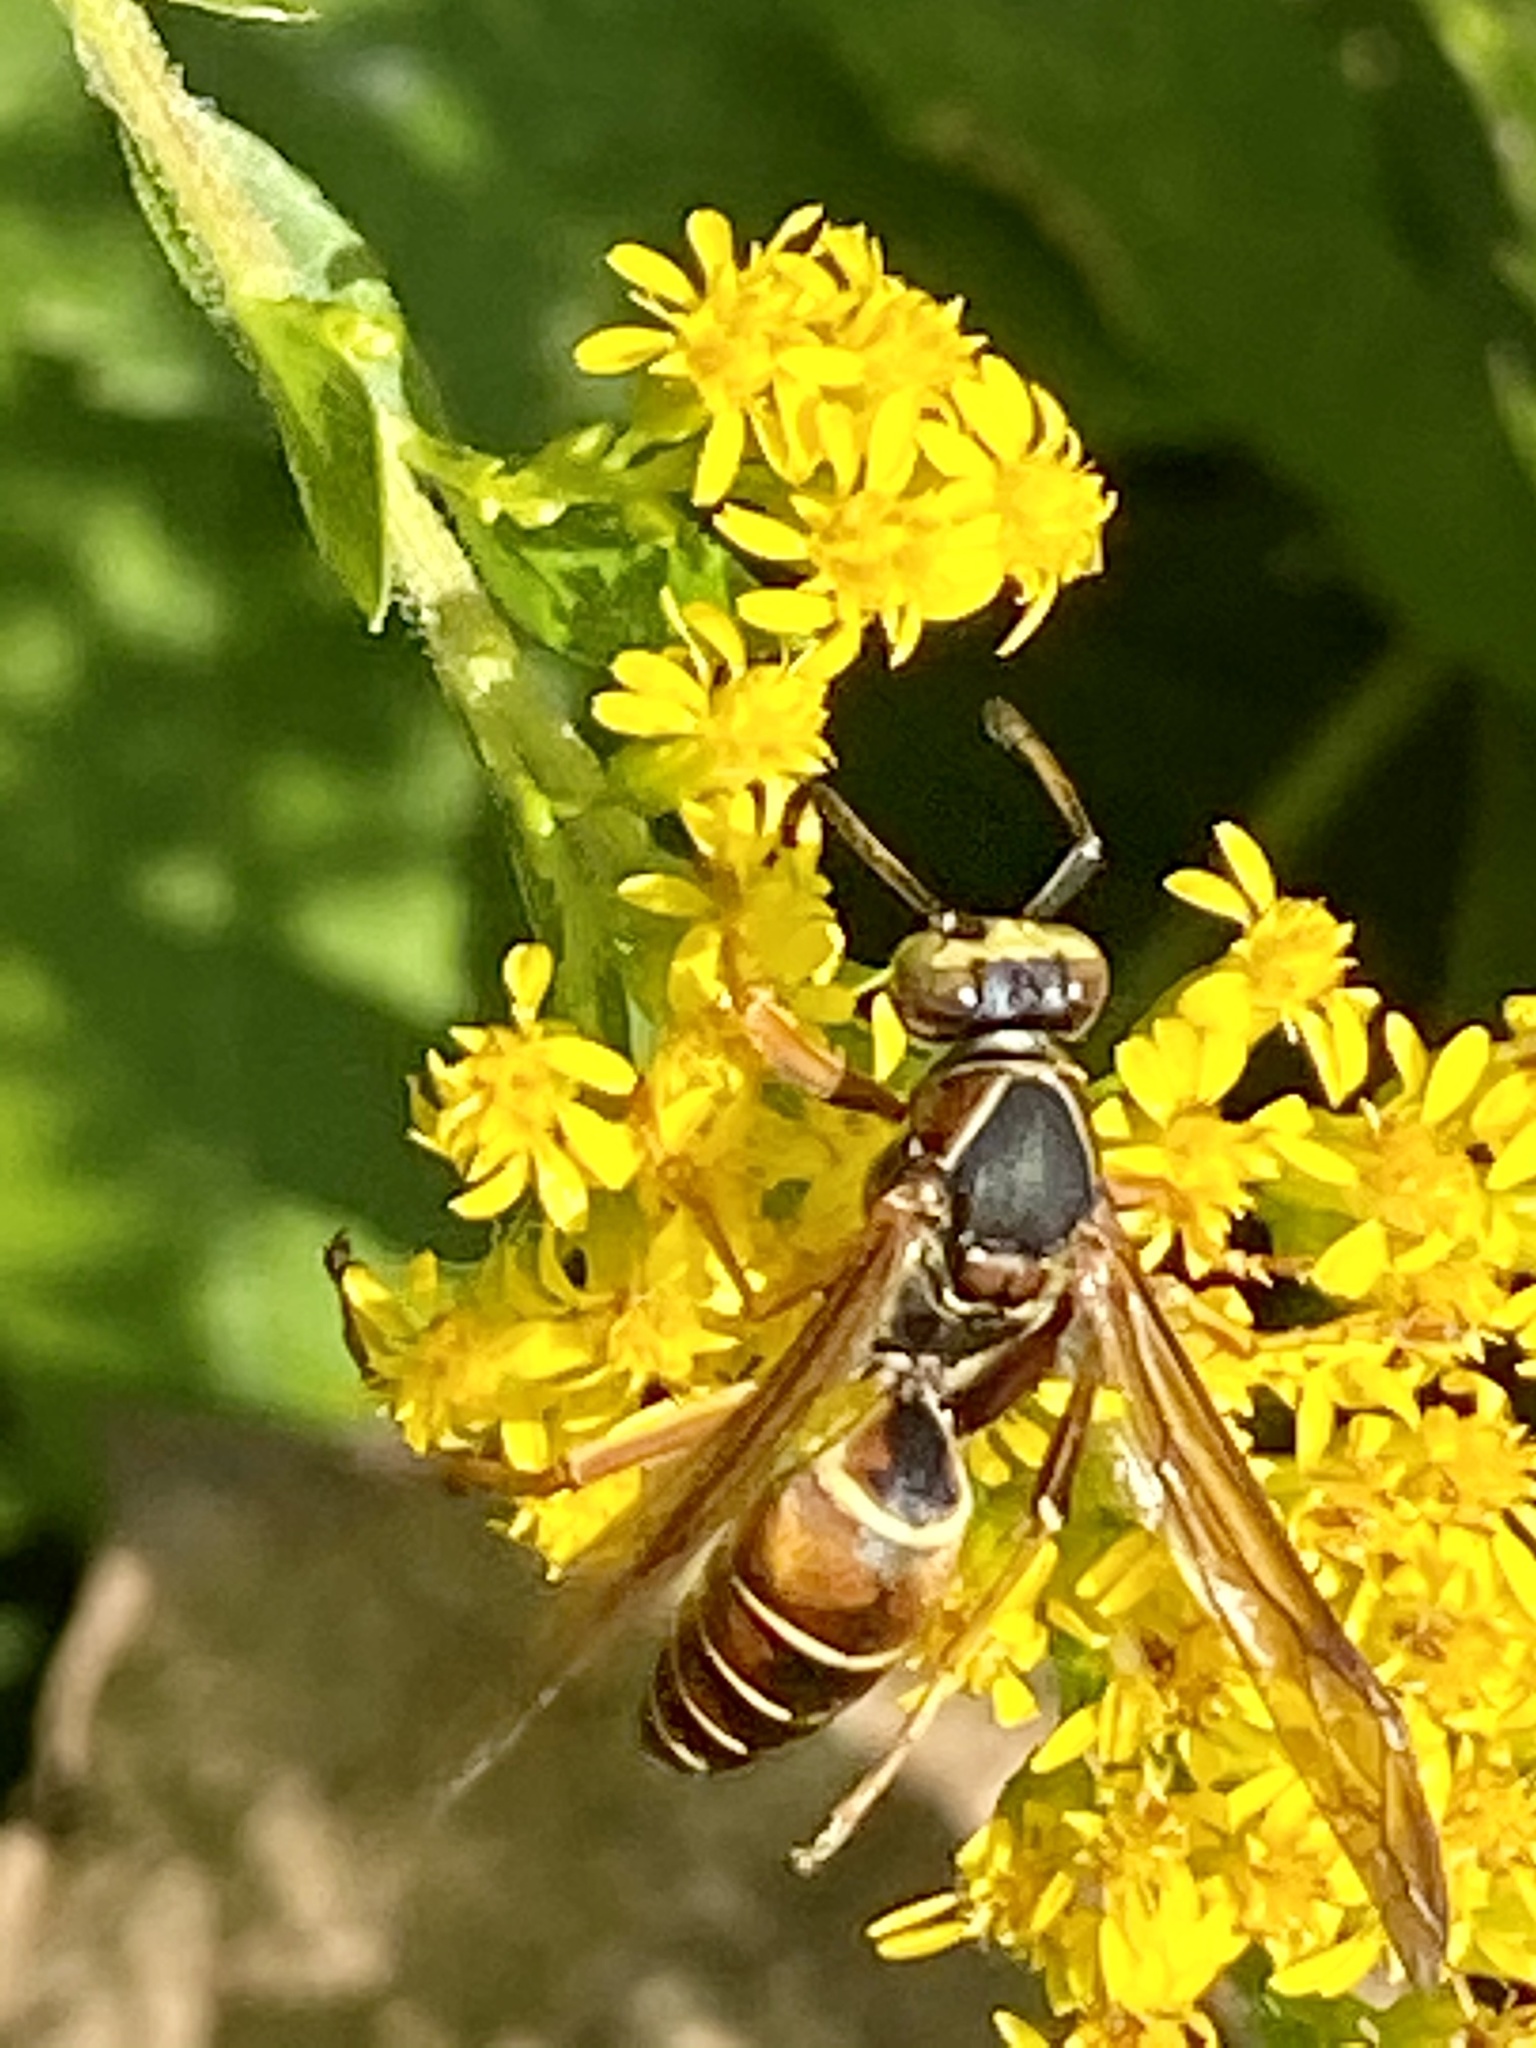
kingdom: Animalia
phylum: Arthropoda
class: Insecta
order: Hymenoptera
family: Eumenidae
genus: Polistes
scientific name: Polistes fuscatus
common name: Dark paper wasp
